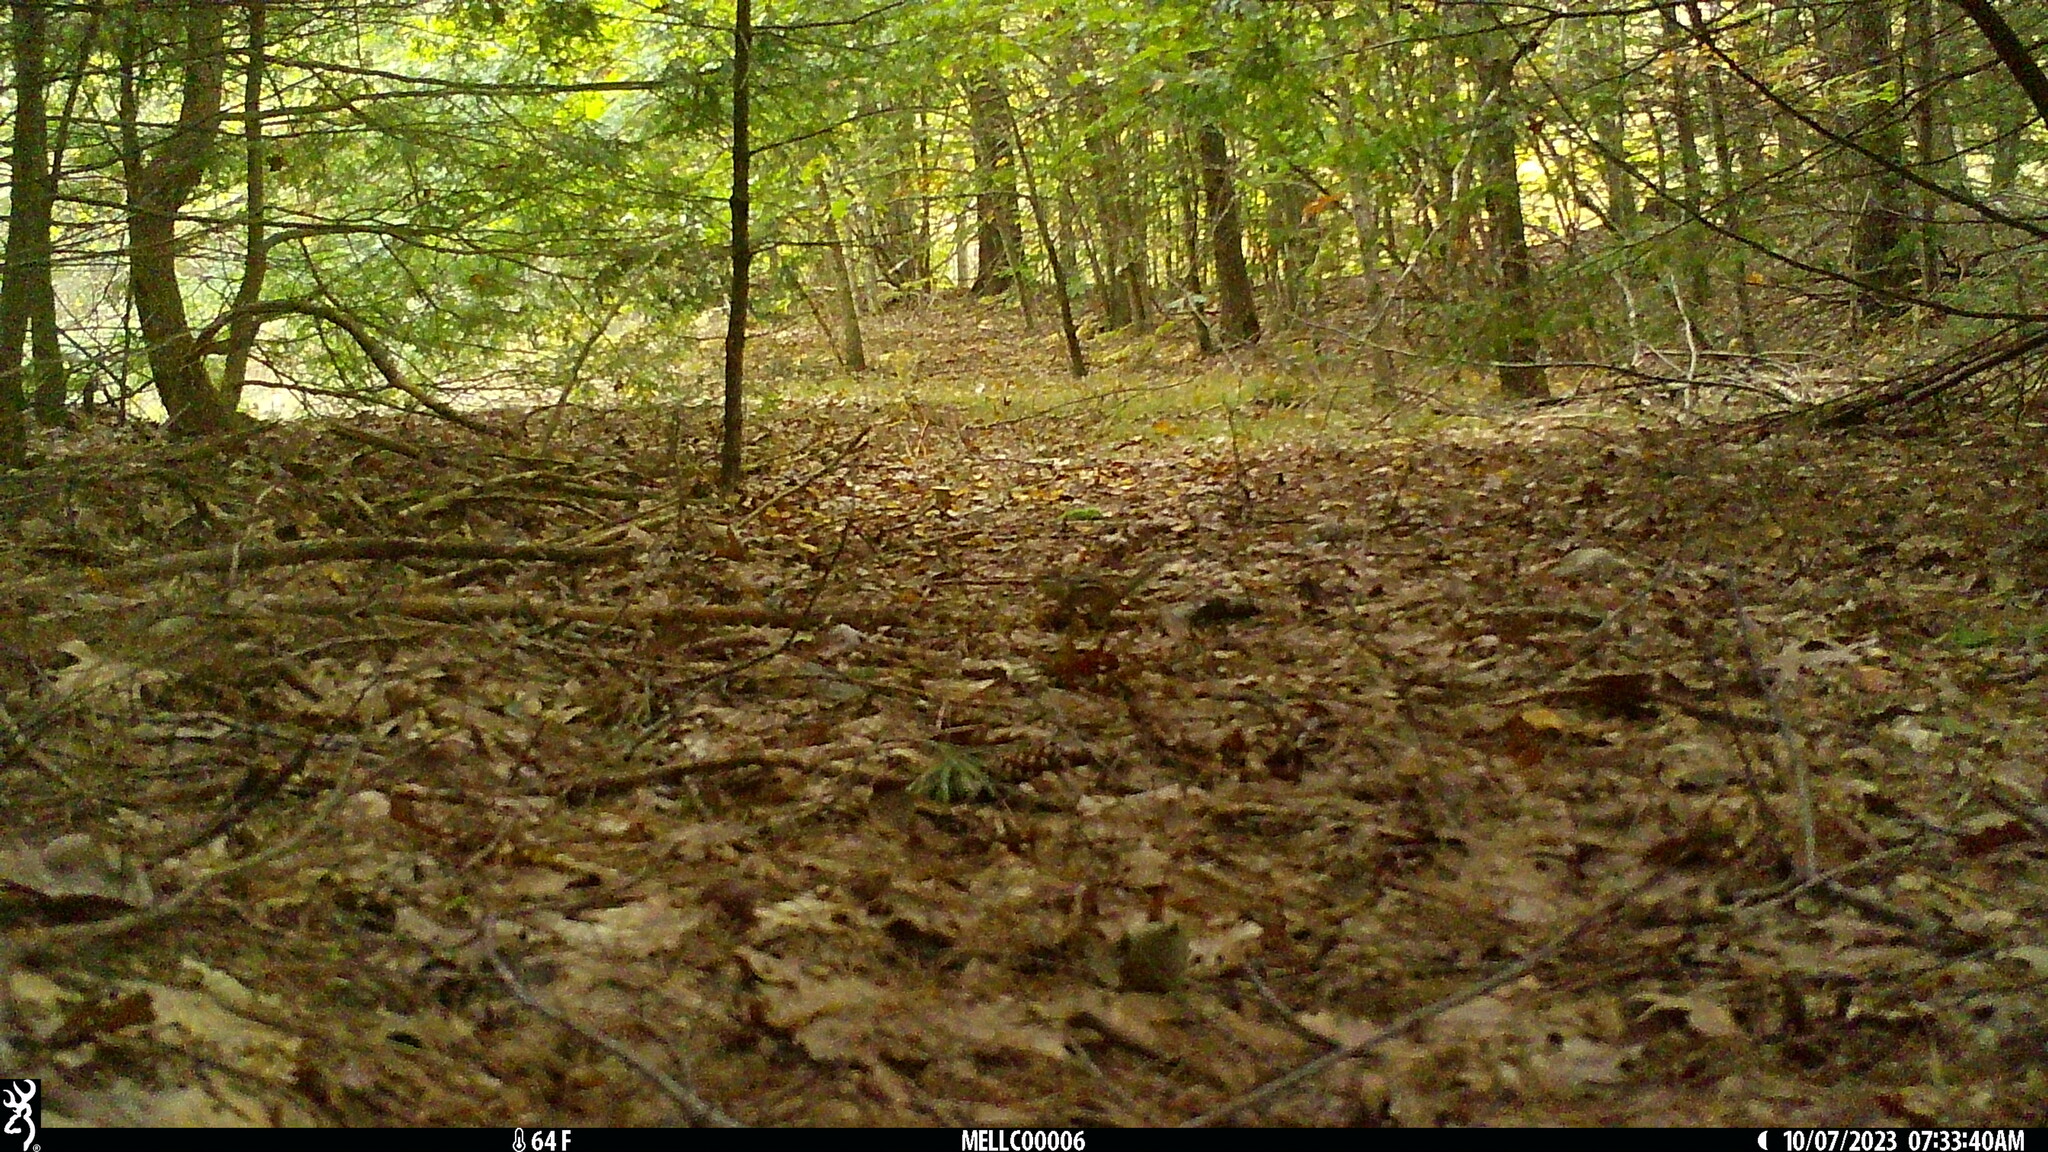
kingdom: Animalia
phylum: Chordata
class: Mammalia
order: Rodentia
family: Sciuridae
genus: Tamias
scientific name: Tamias striatus
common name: Eastern chipmunk
